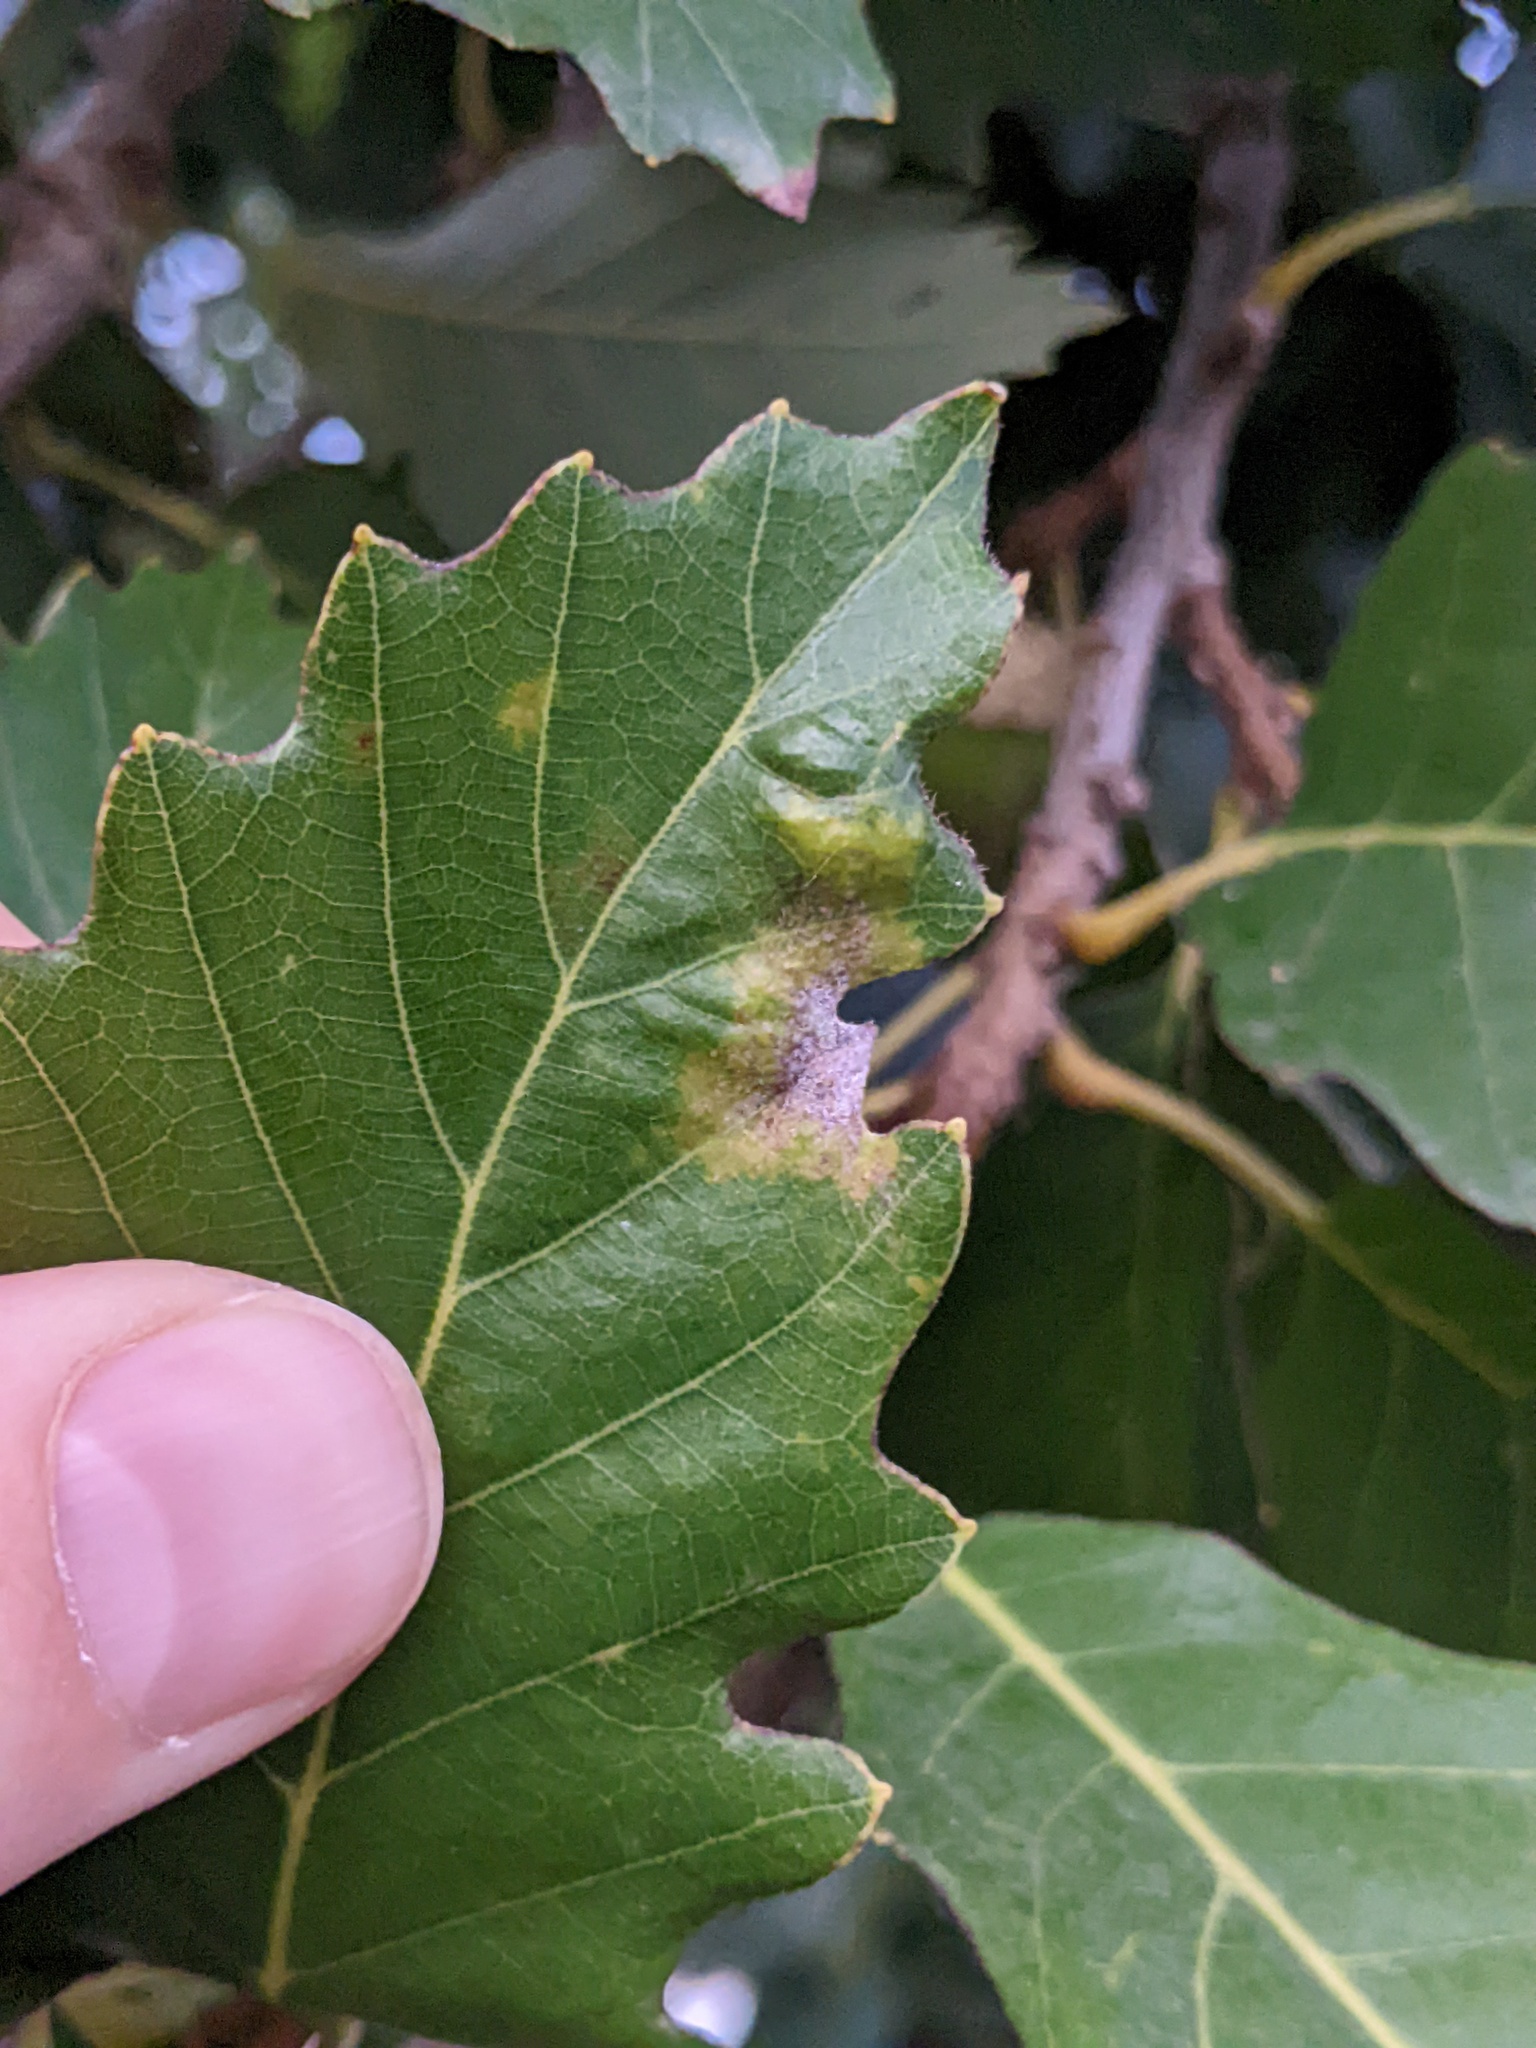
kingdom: Animalia
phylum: Arthropoda
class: Arachnida
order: Trombidiformes
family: Eriophyidae
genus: Aceria
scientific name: Aceria quercina
